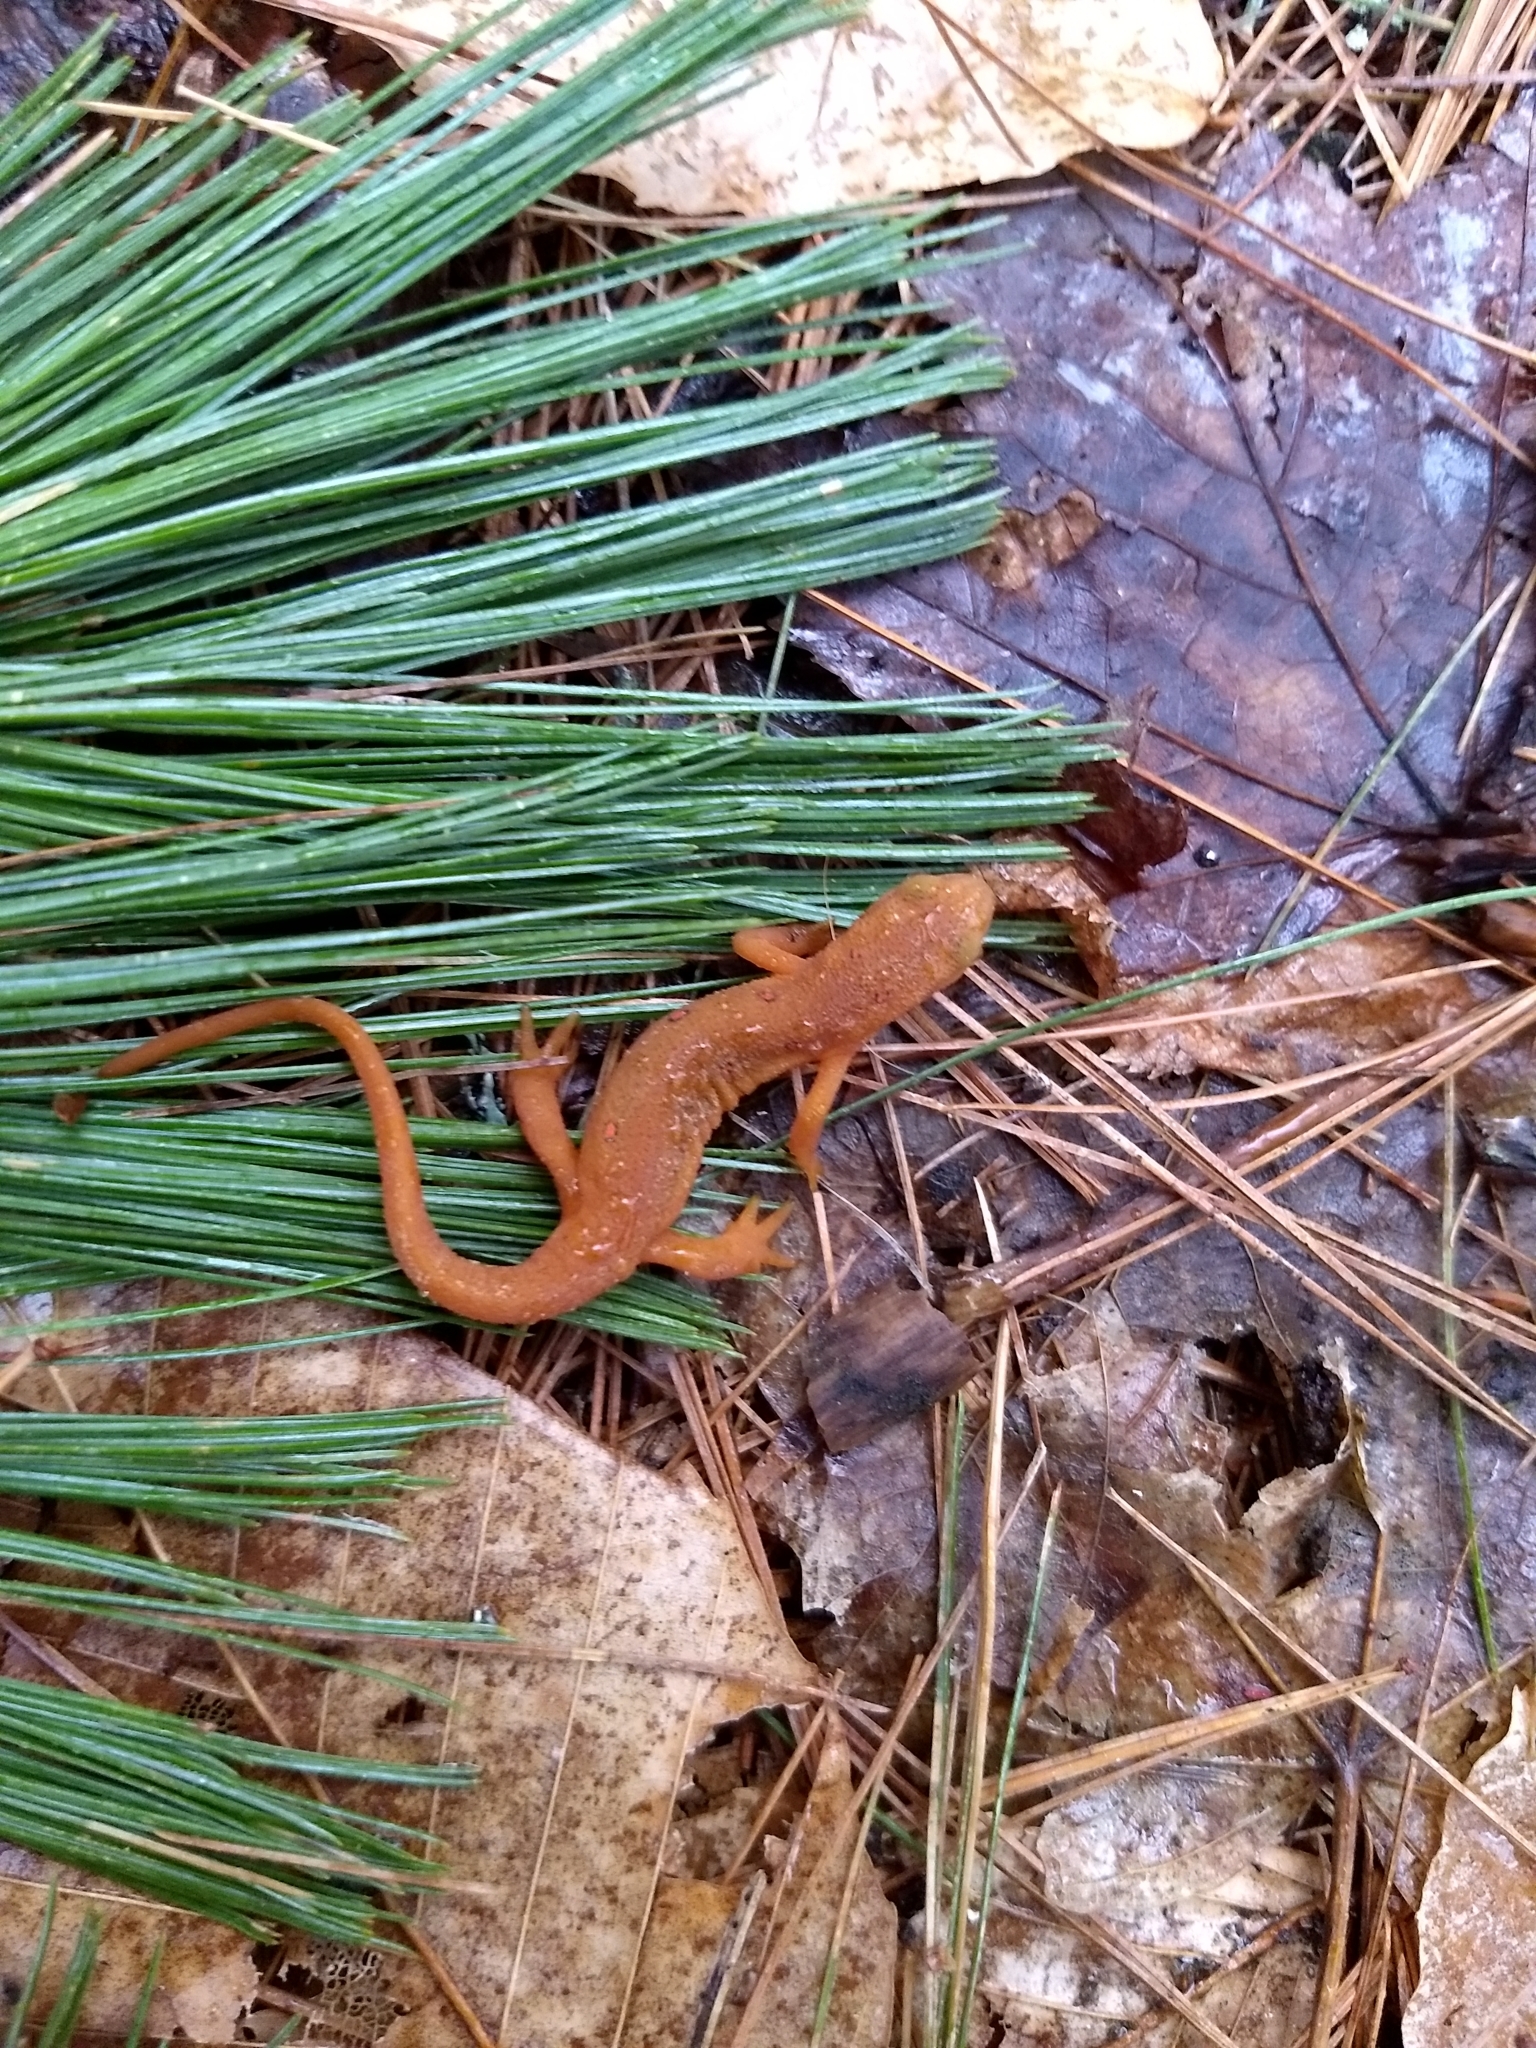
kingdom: Animalia
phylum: Chordata
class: Amphibia
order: Caudata
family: Salamandridae
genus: Notophthalmus
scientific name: Notophthalmus viridescens
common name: Eastern newt
